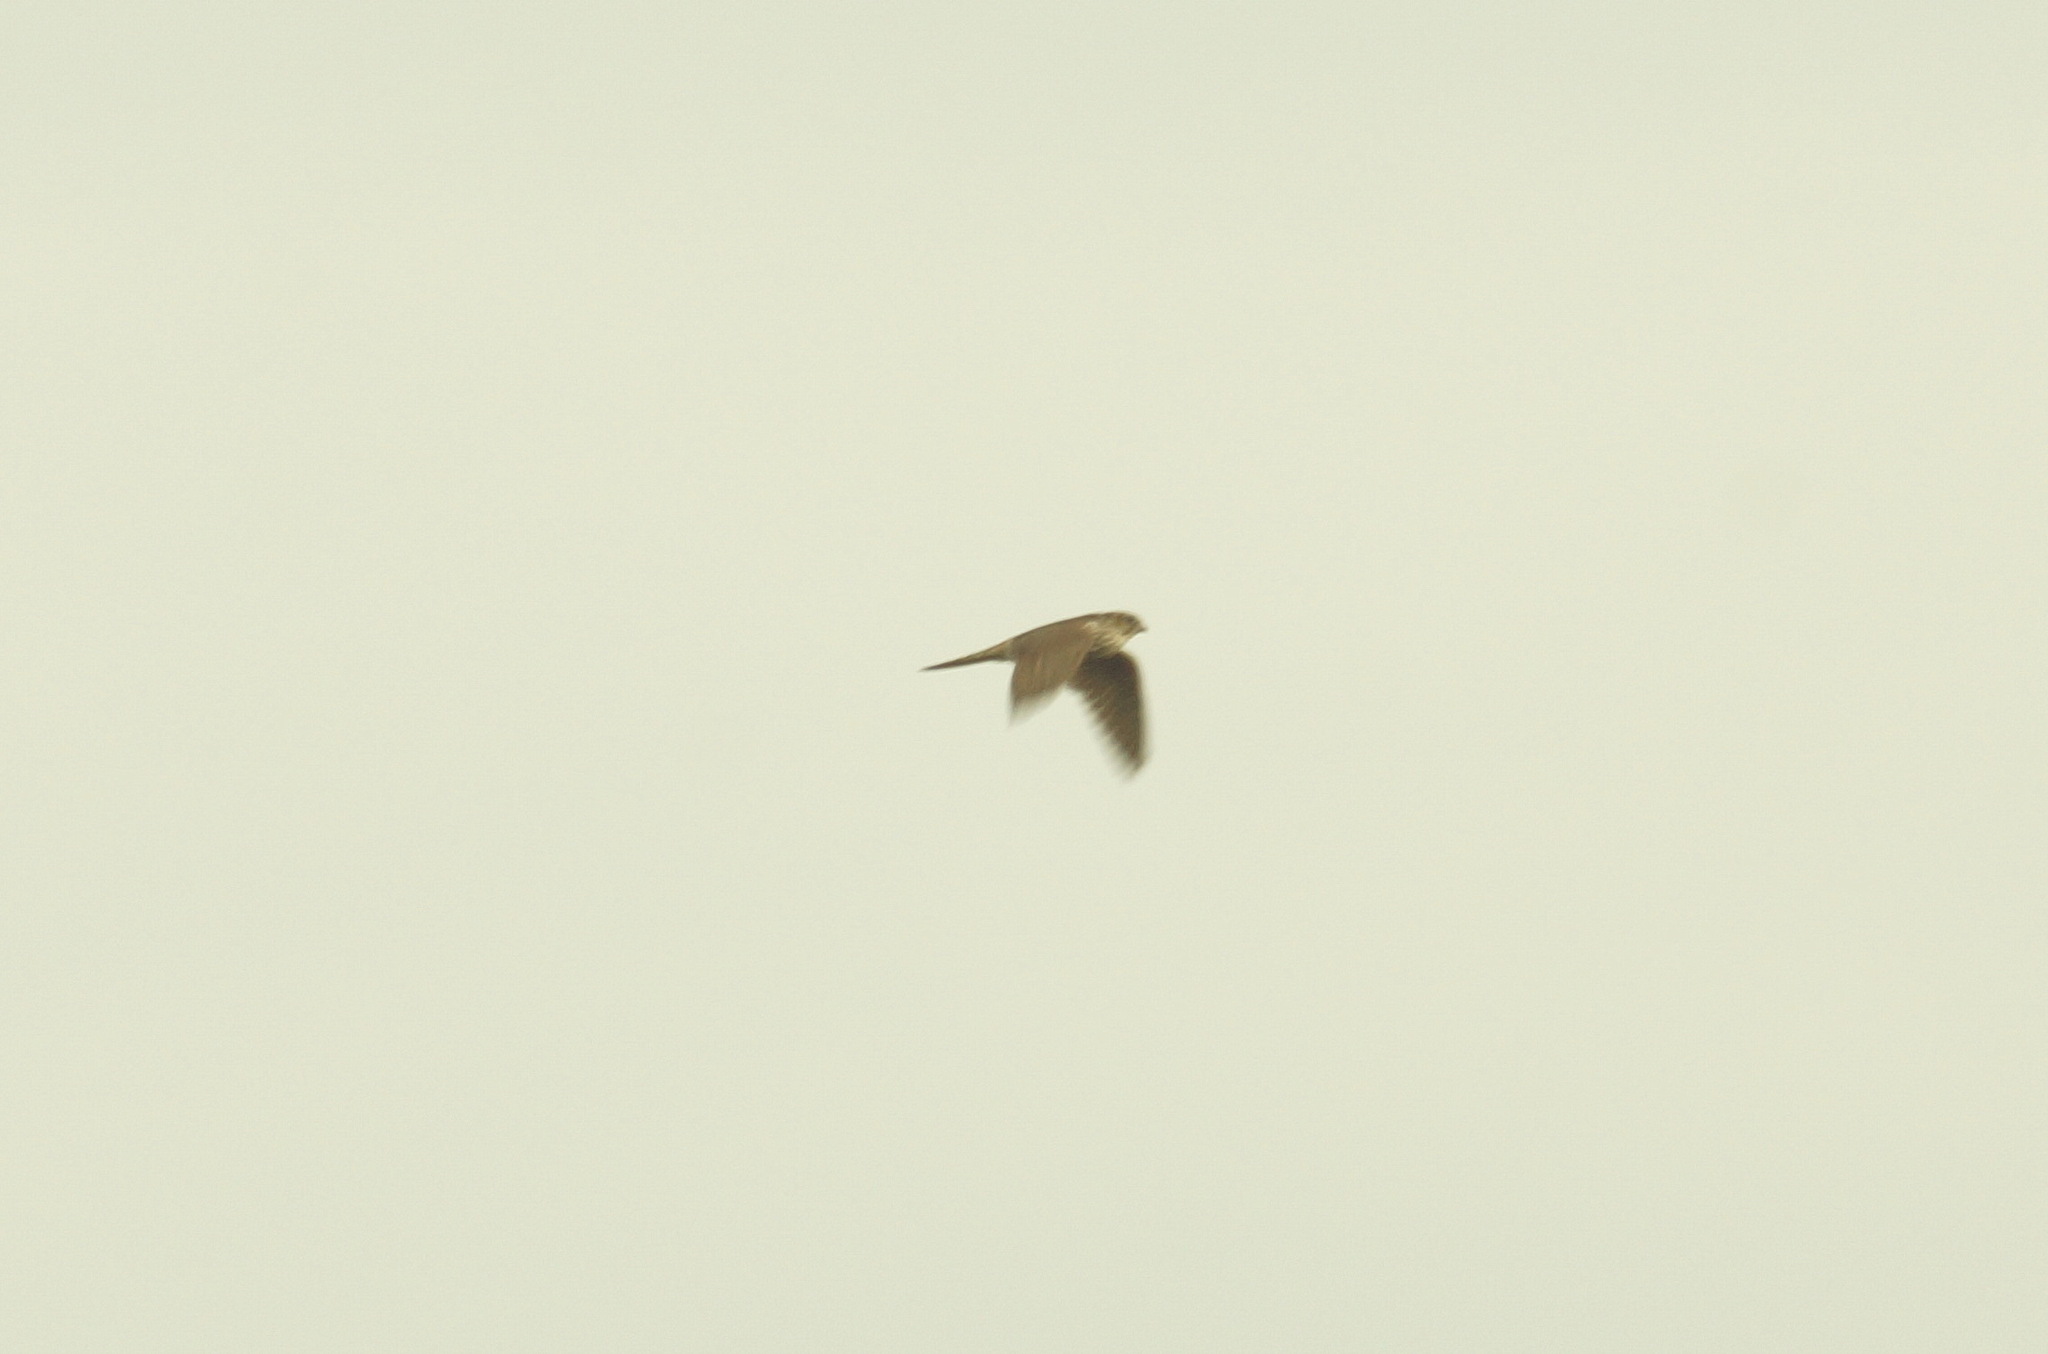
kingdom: Animalia
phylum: Chordata
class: Aves
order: Falconiformes
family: Falconidae
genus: Falco
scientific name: Falco columbarius
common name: Merlin
